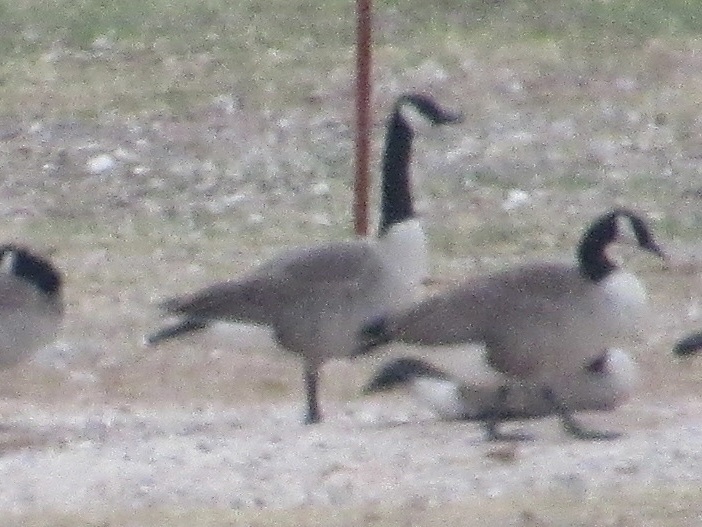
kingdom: Animalia
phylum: Chordata
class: Aves
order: Anseriformes
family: Anatidae
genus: Branta
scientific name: Branta canadensis
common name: Canada goose
